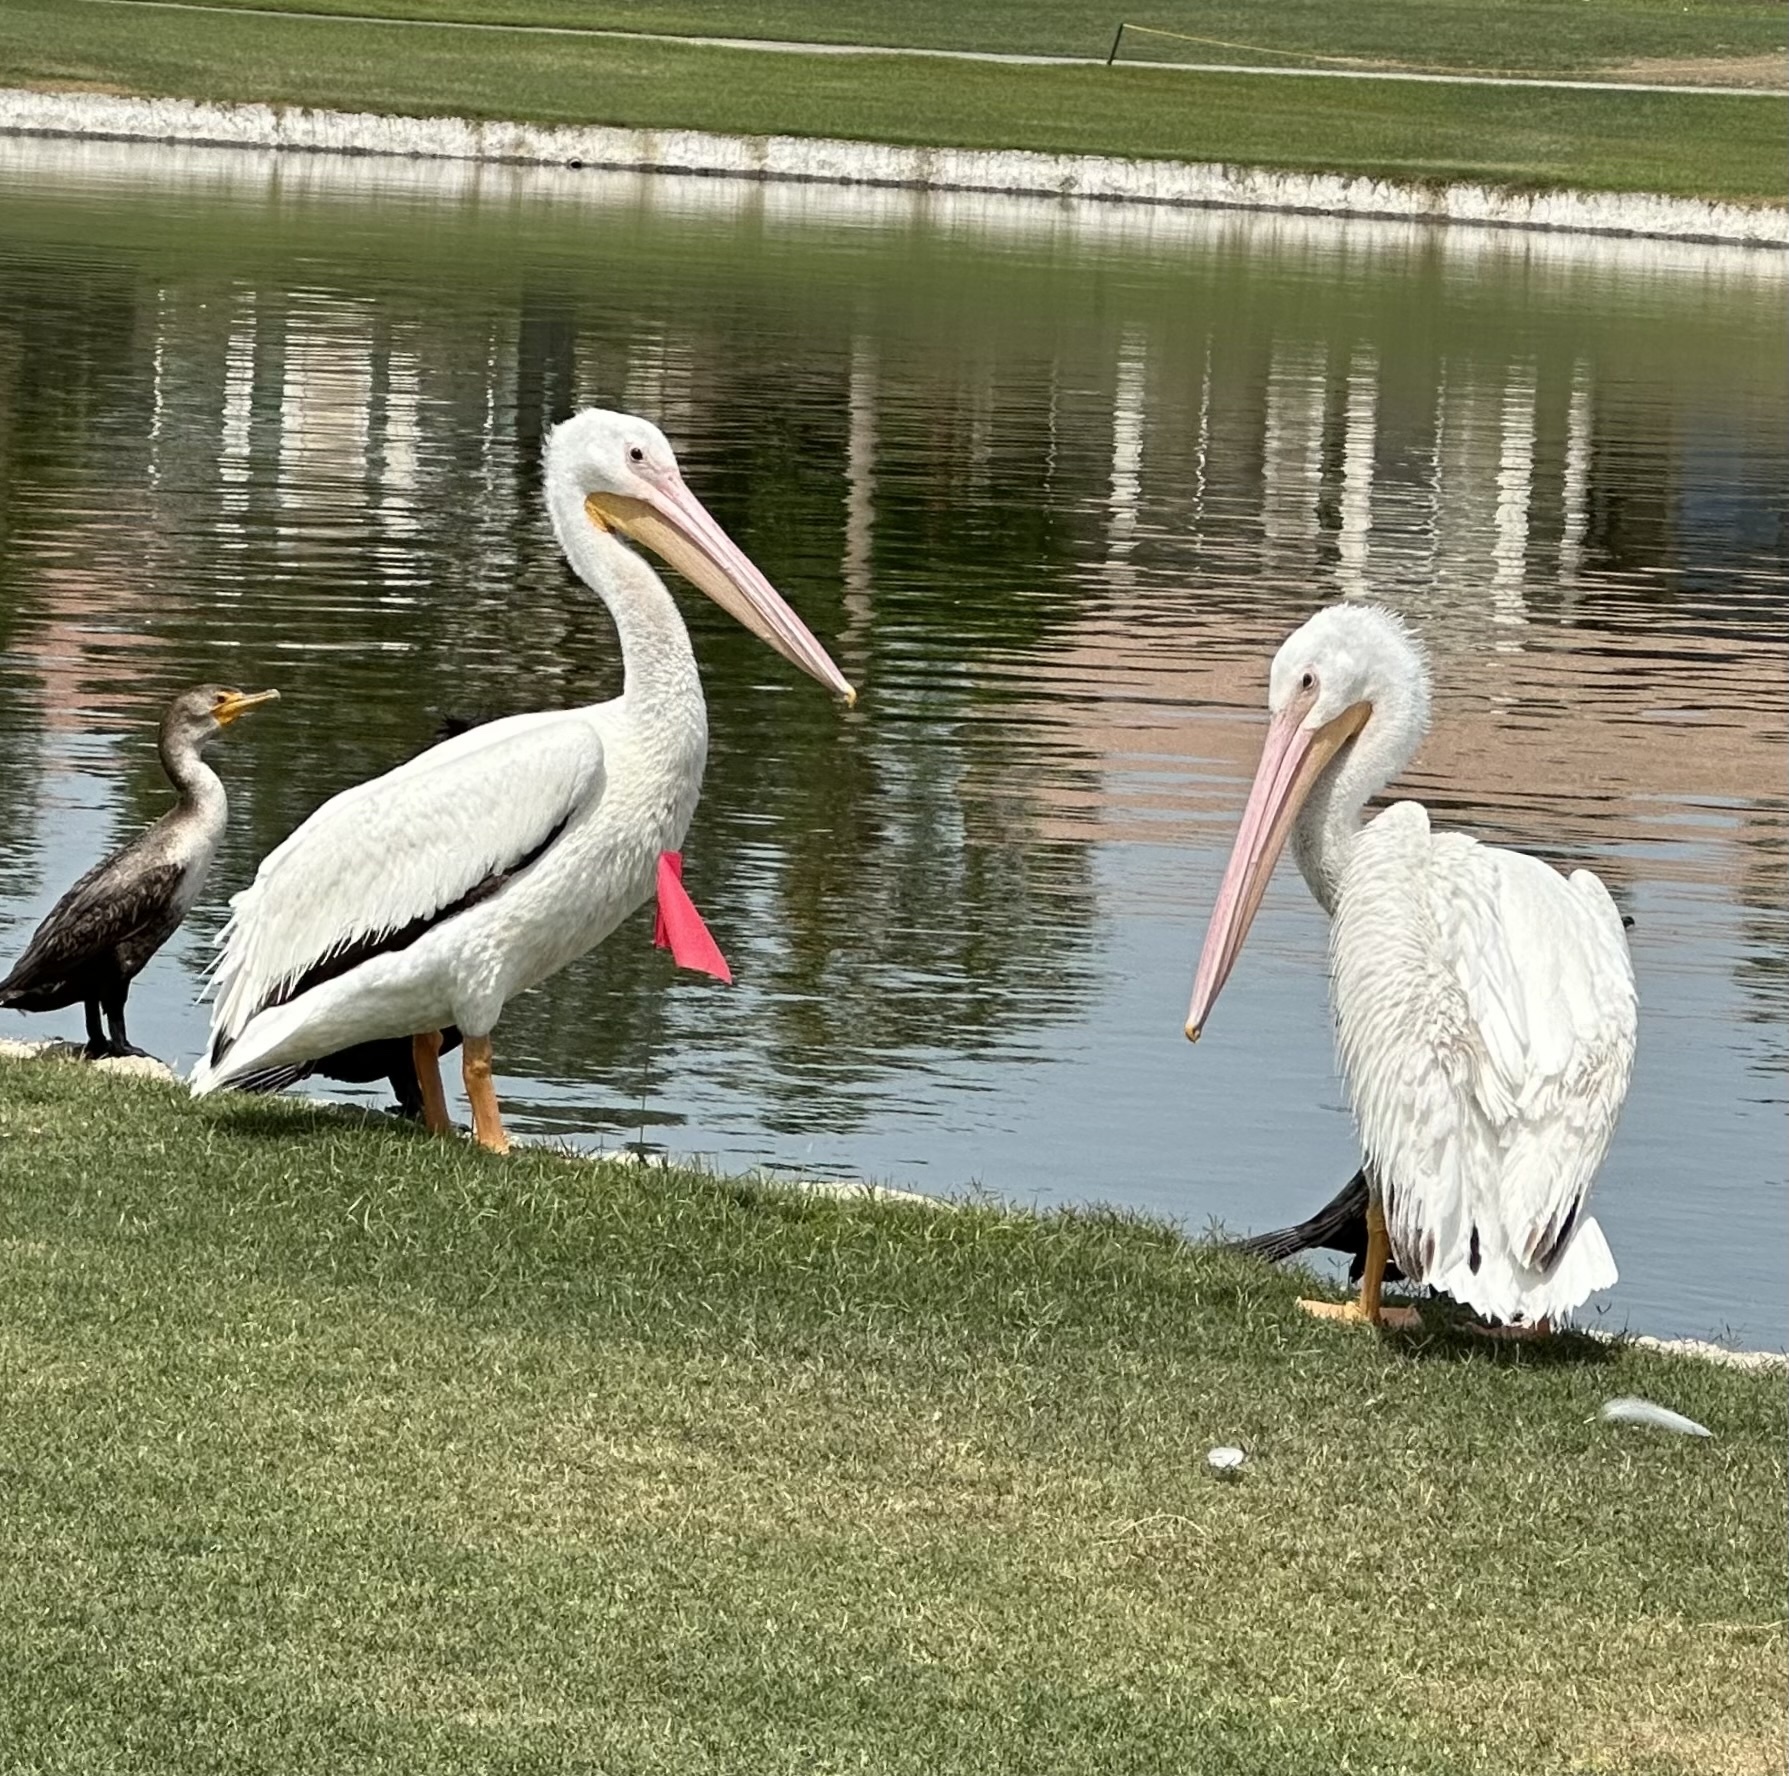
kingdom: Animalia
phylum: Chordata
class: Aves
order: Pelecaniformes
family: Pelecanidae
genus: Pelecanus
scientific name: Pelecanus erythrorhynchos
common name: American white pelican
